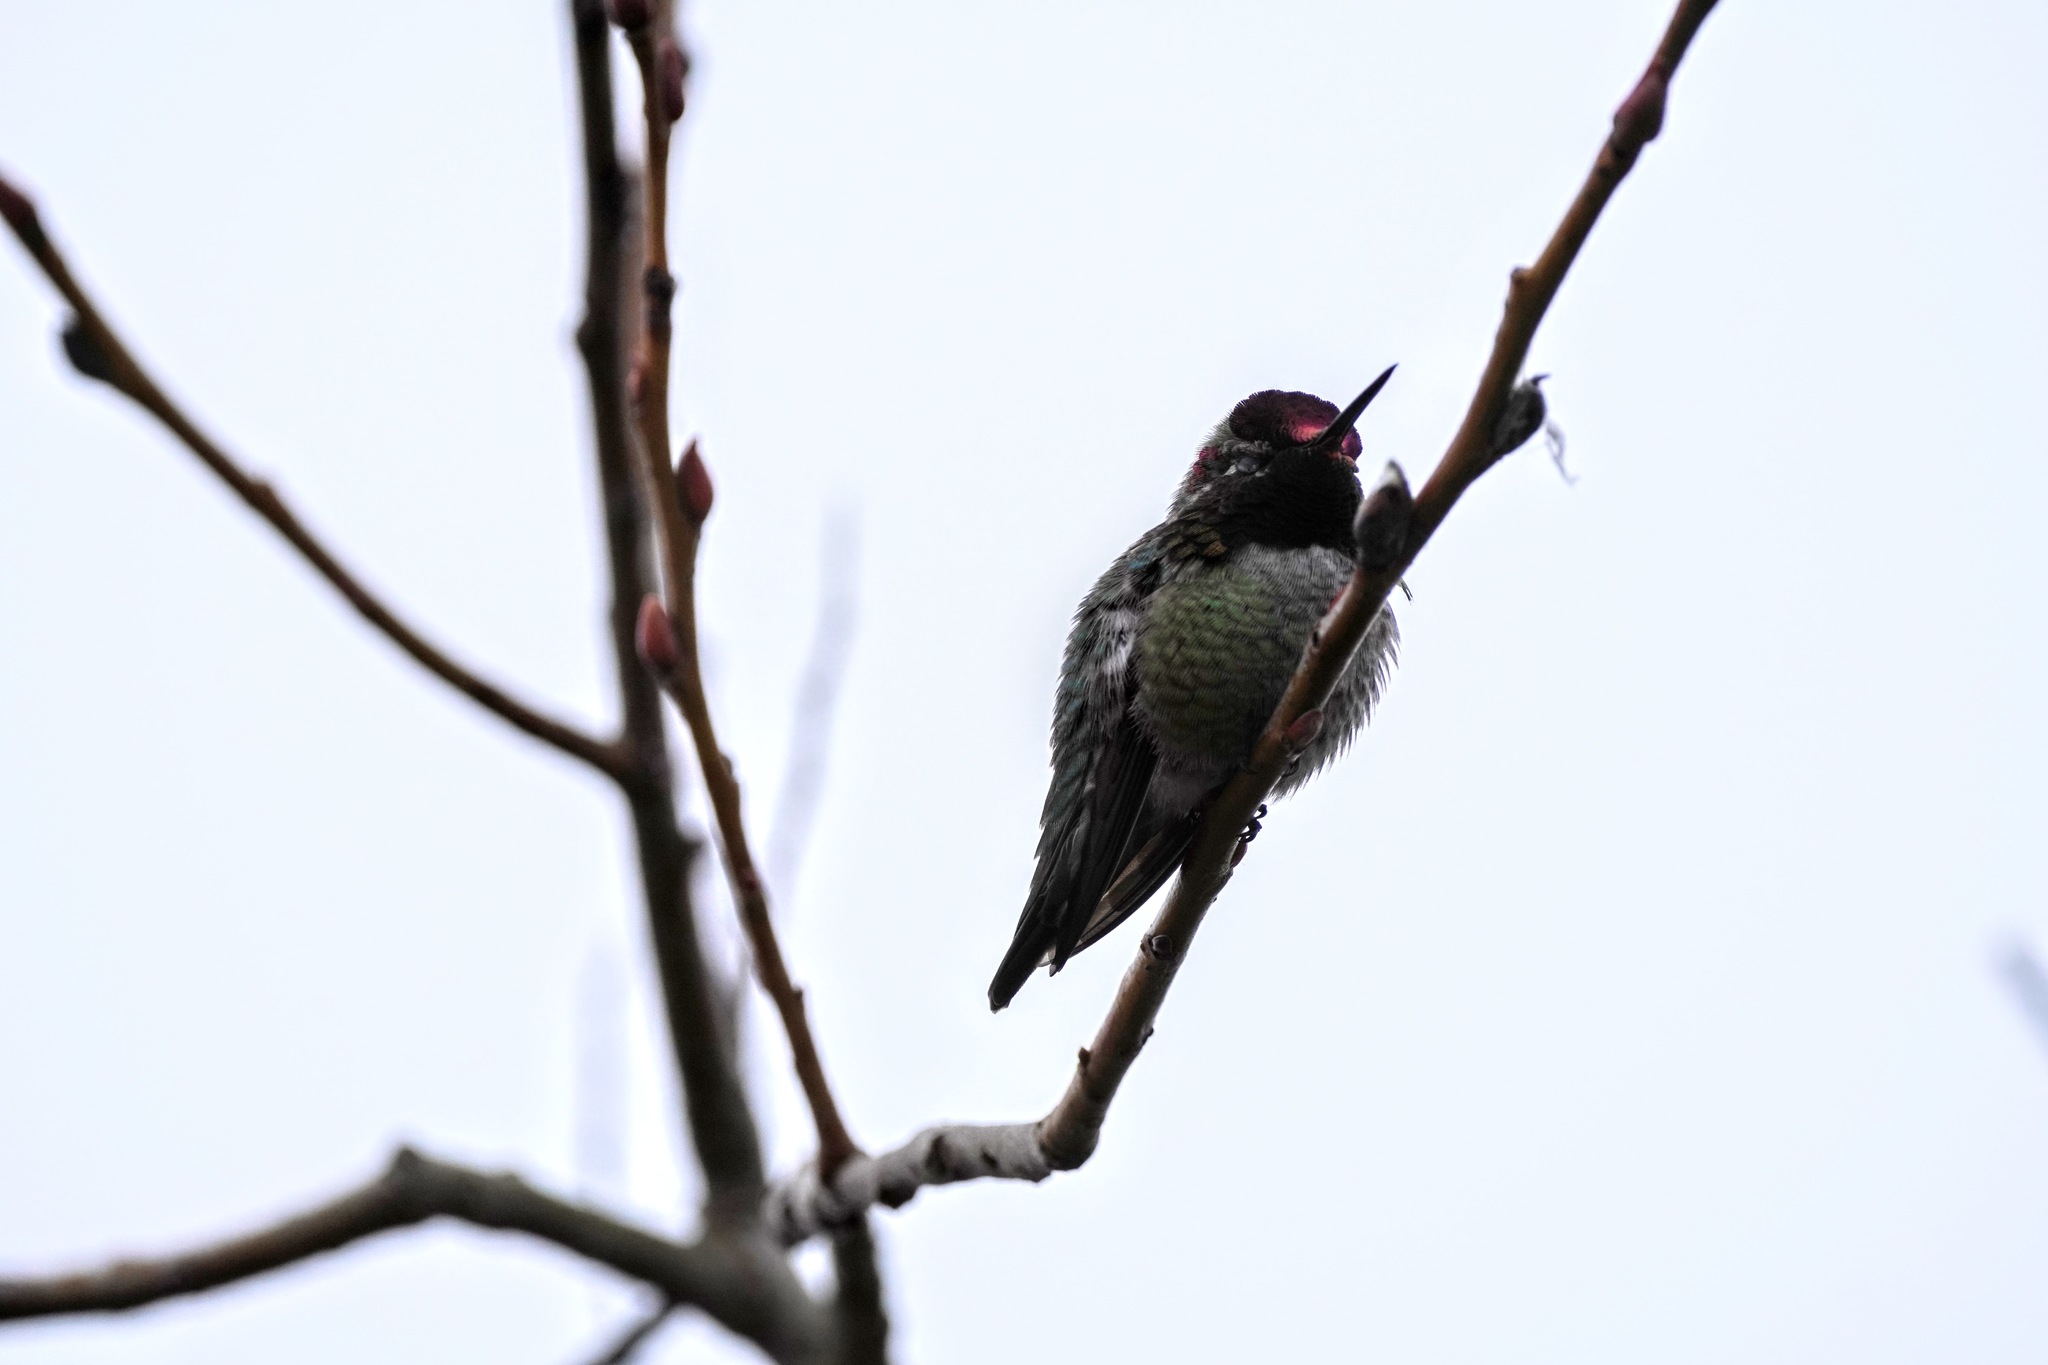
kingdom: Animalia
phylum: Chordata
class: Aves
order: Apodiformes
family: Trochilidae
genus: Calypte
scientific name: Calypte anna
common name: Anna's hummingbird
